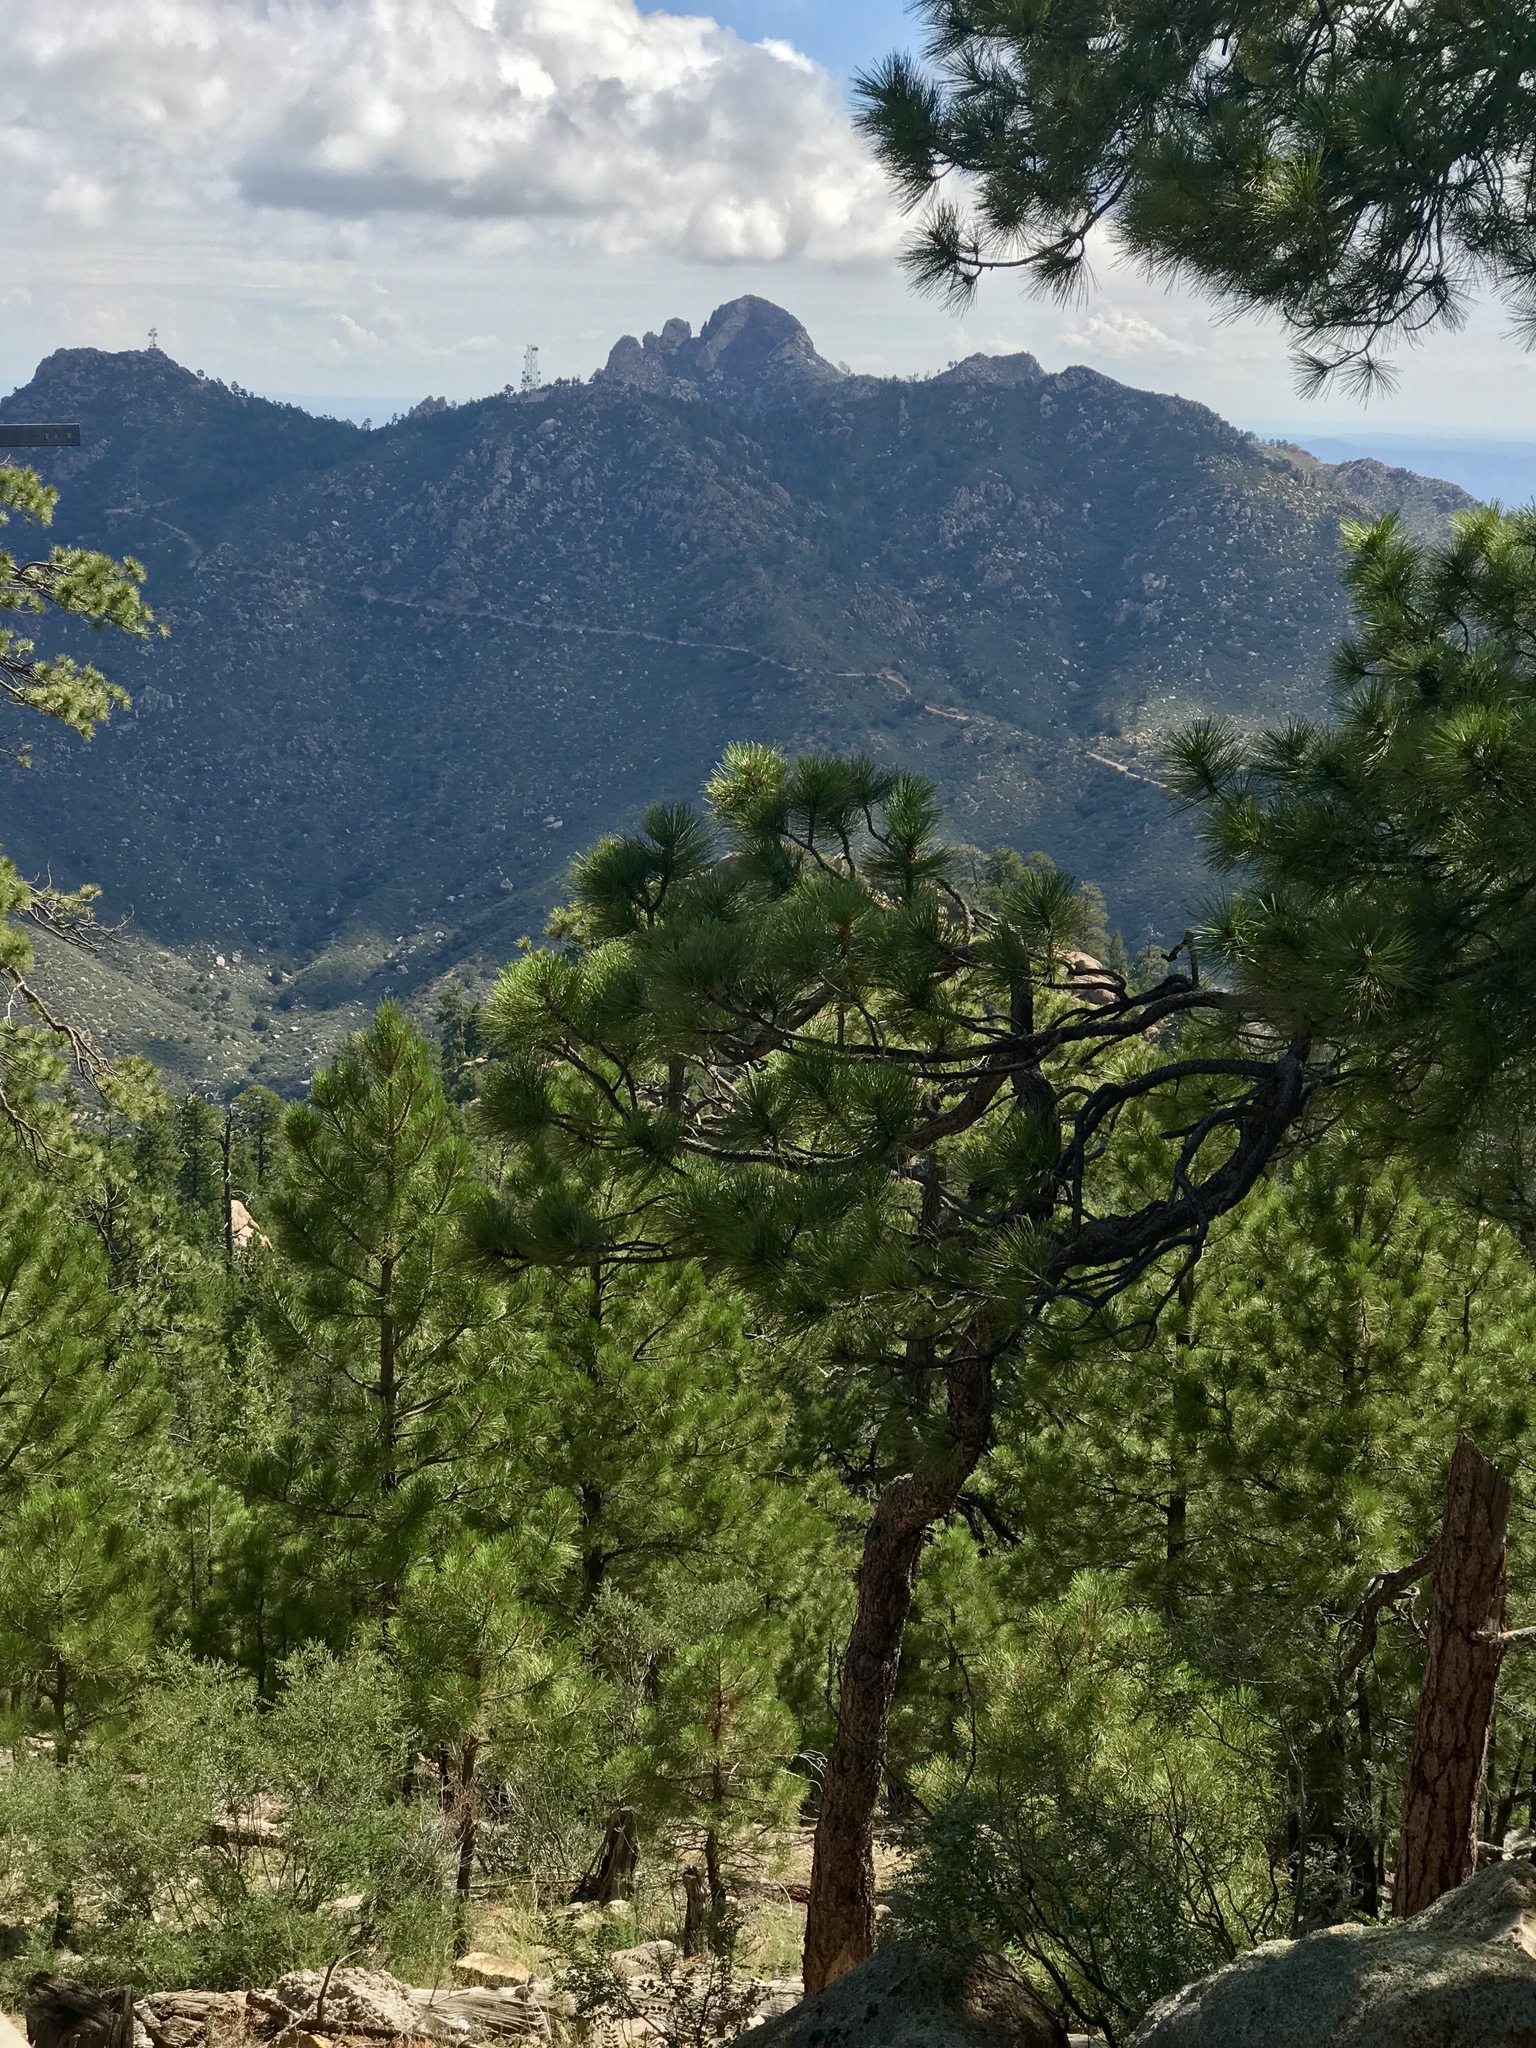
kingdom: Plantae
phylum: Tracheophyta
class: Pinopsida
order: Pinales
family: Pinaceae
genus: Pinus
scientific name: Pinus ponderosa
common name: Western yellow-pine
